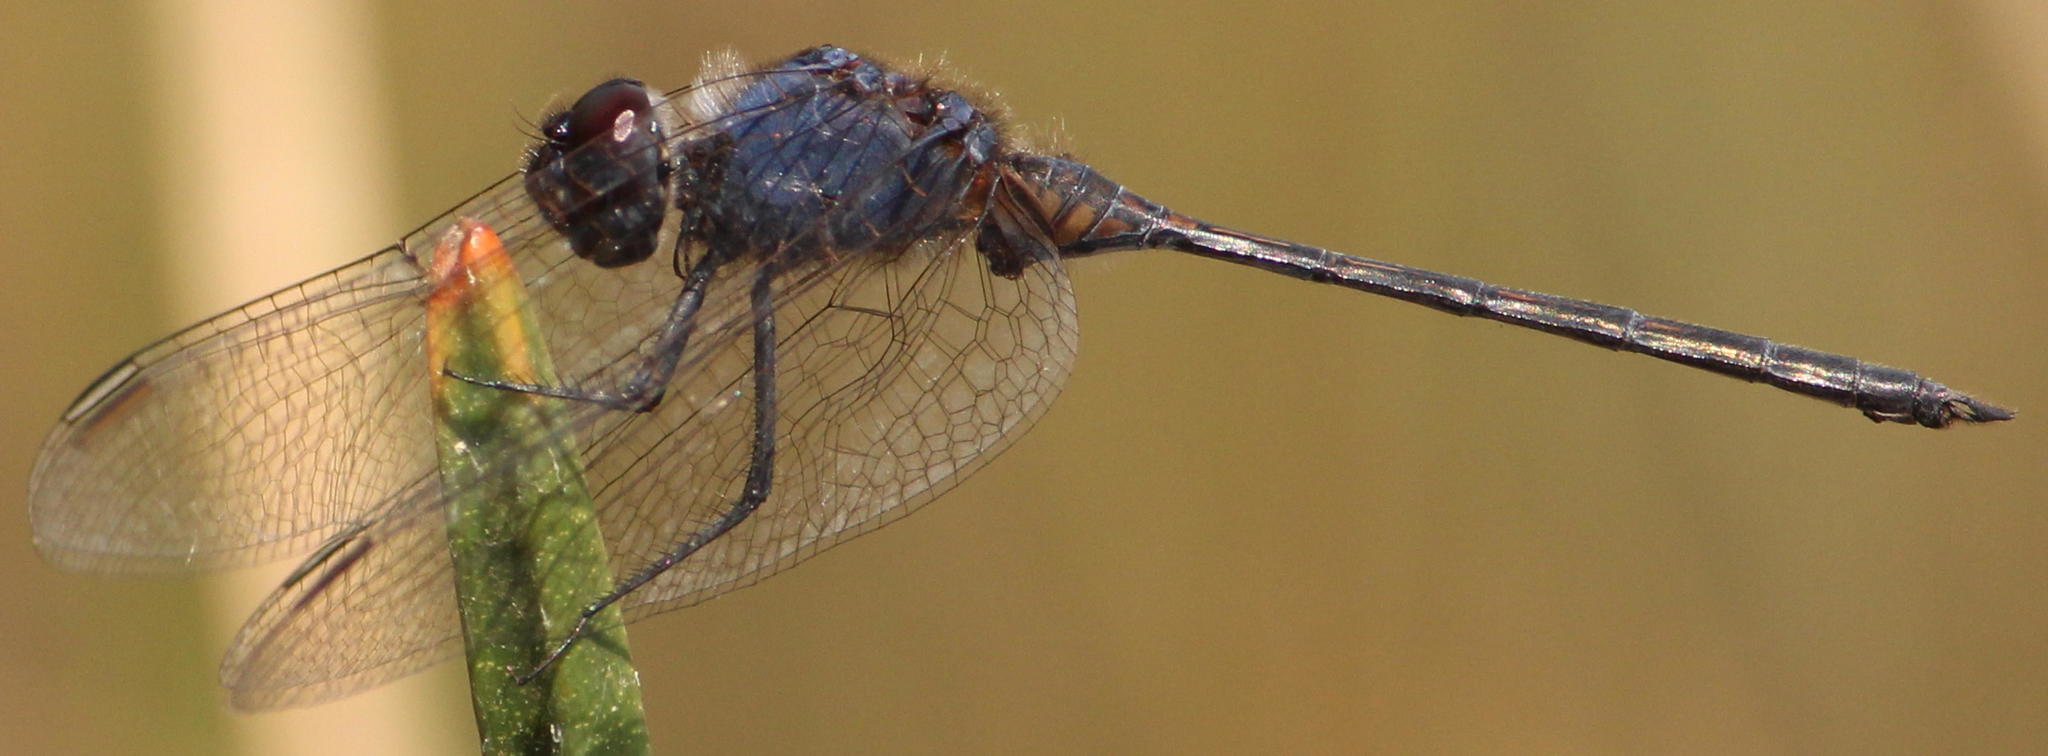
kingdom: Animalia
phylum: Arthropoda
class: Insecta
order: Odonata
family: Libellulidae
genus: Trithemis
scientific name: Trithemis hecate
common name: Silhouette dropwing
